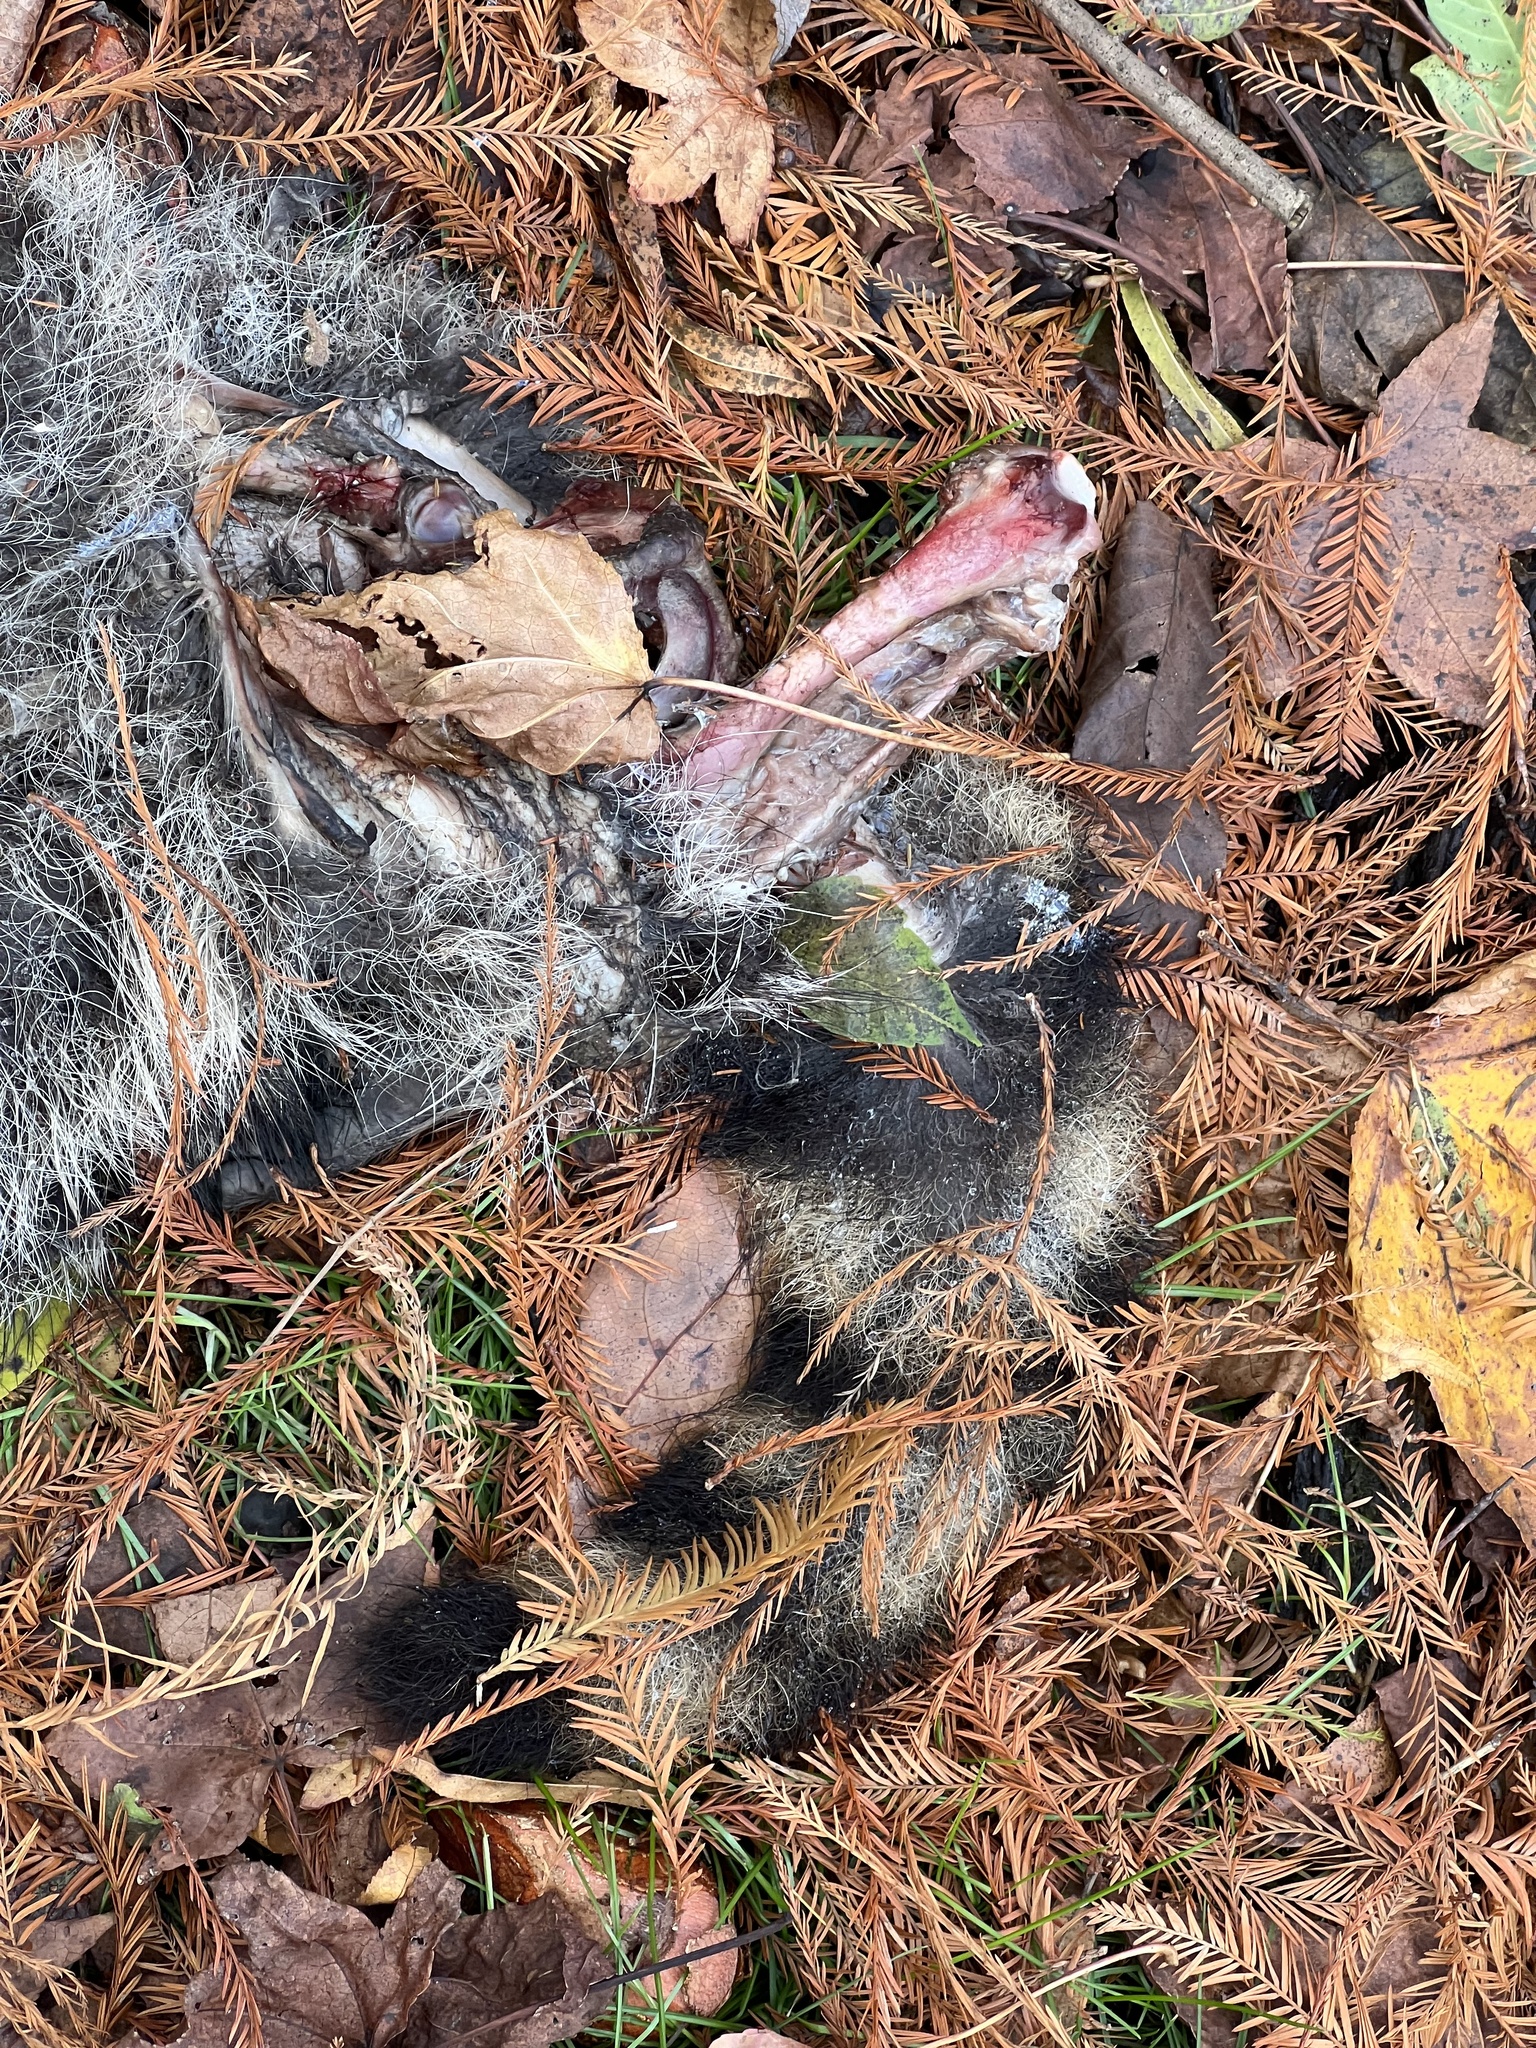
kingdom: Animalia
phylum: Chordata
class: Mammalia
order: Carnivora
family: Procyonidae
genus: Procyon
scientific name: Procyon lotor
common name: Raccoon
